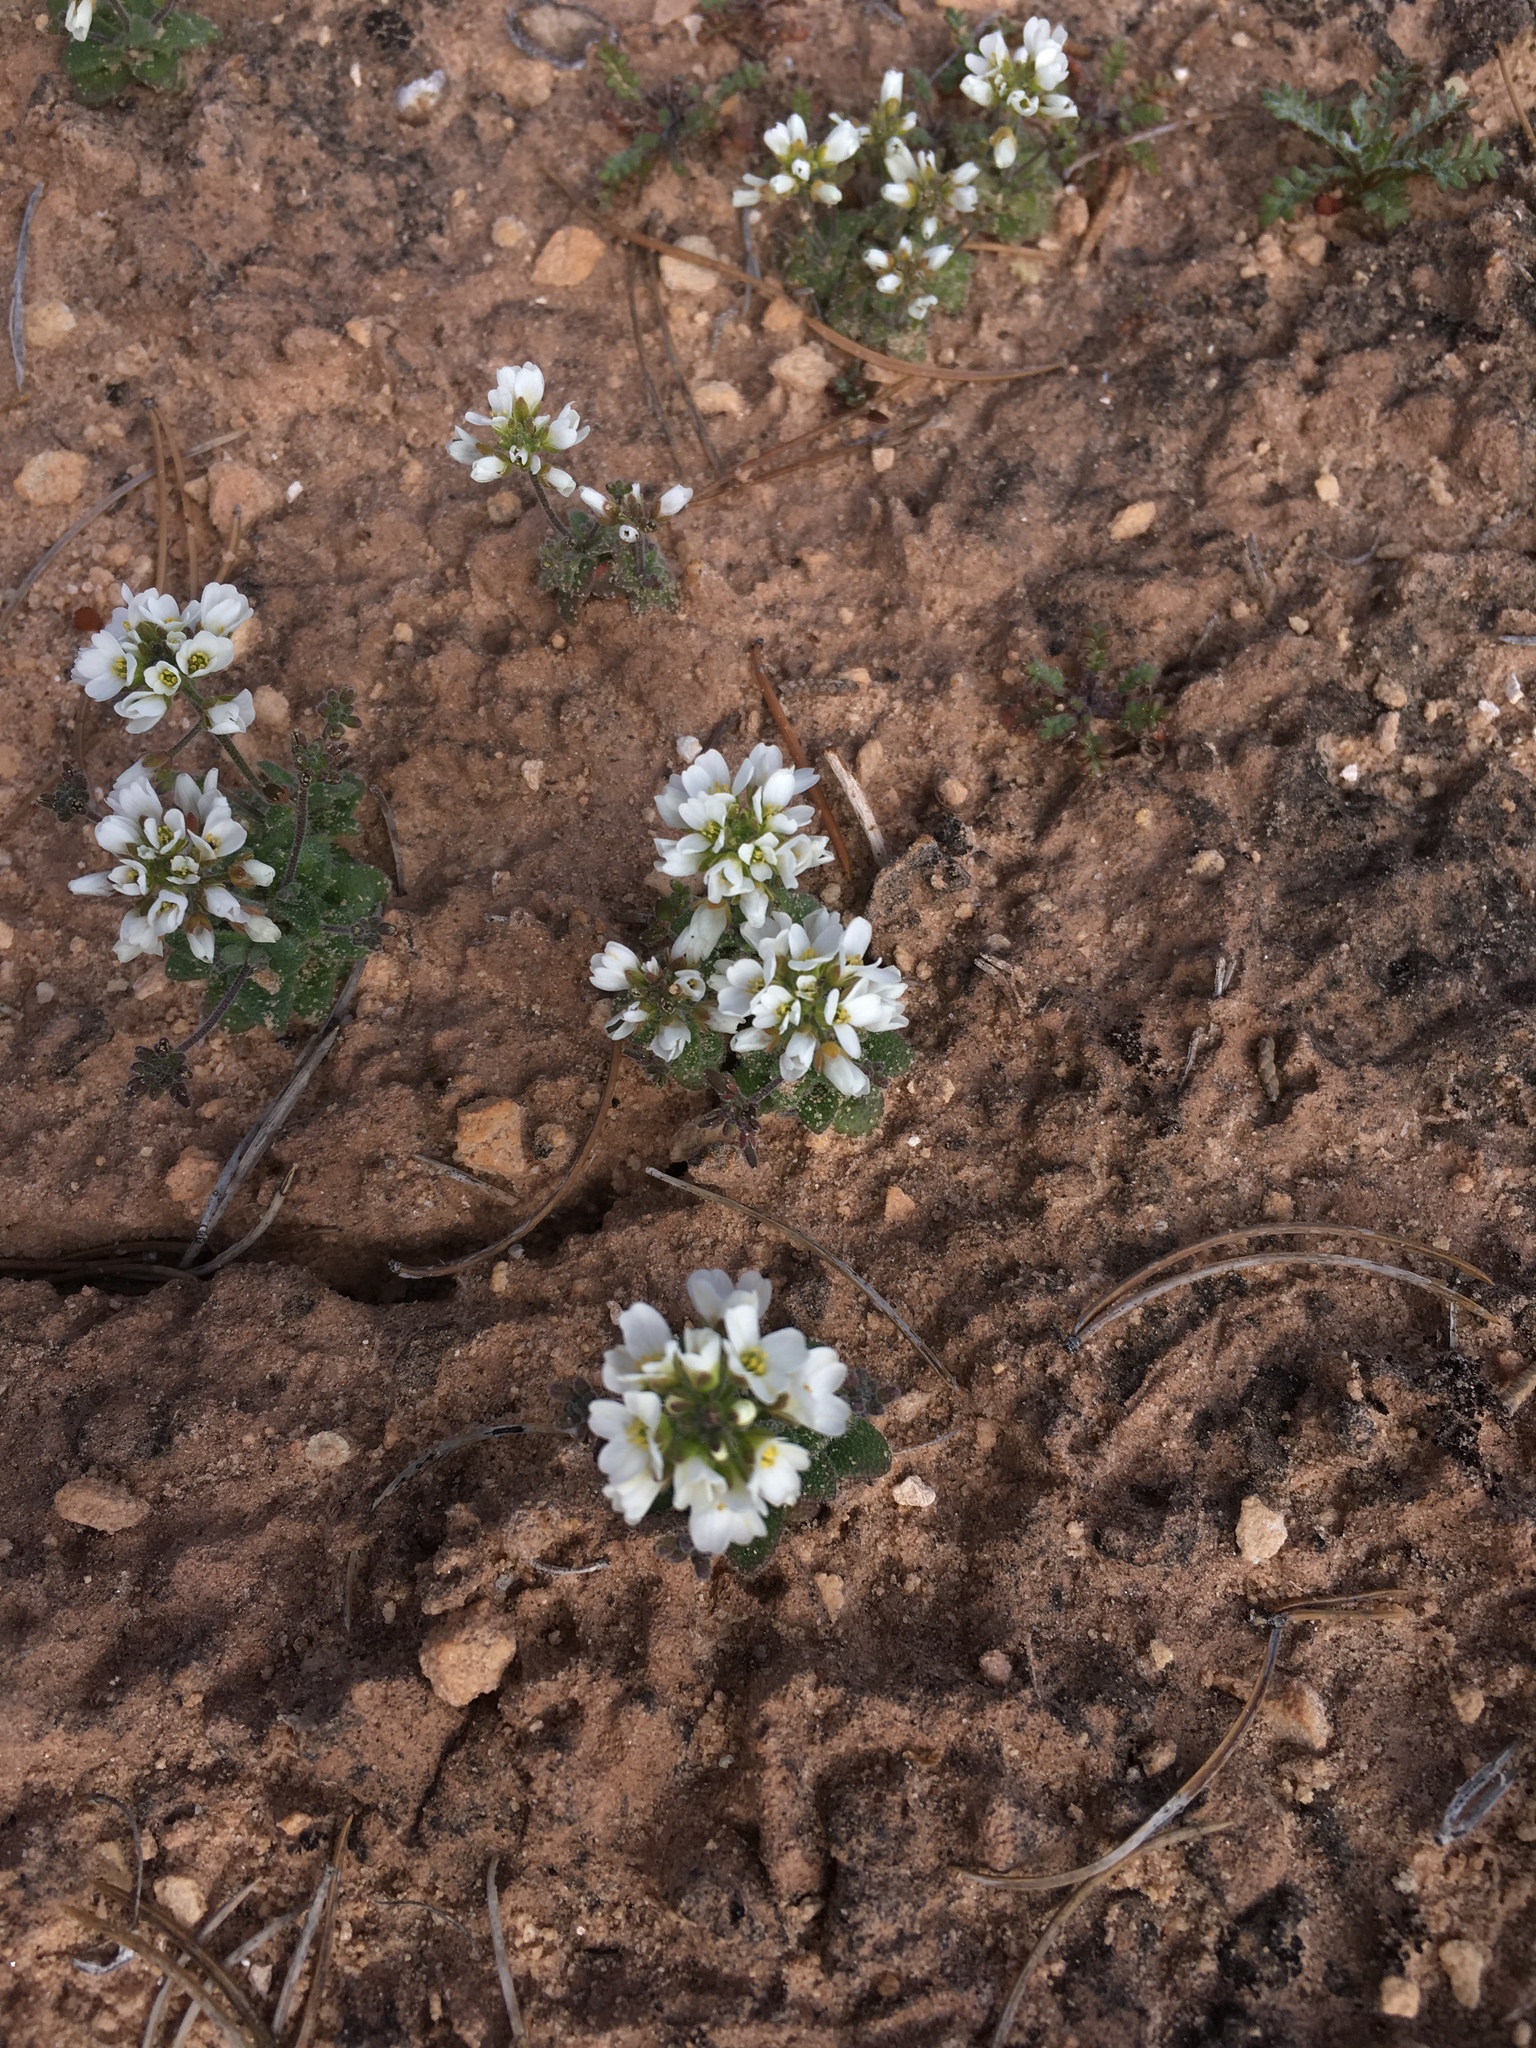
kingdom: Plantae
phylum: Tracheophyta
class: Magnoliopsida
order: Brassicales
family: Brassicaceae
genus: Tomostima
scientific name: Tomostima cuneifolia
